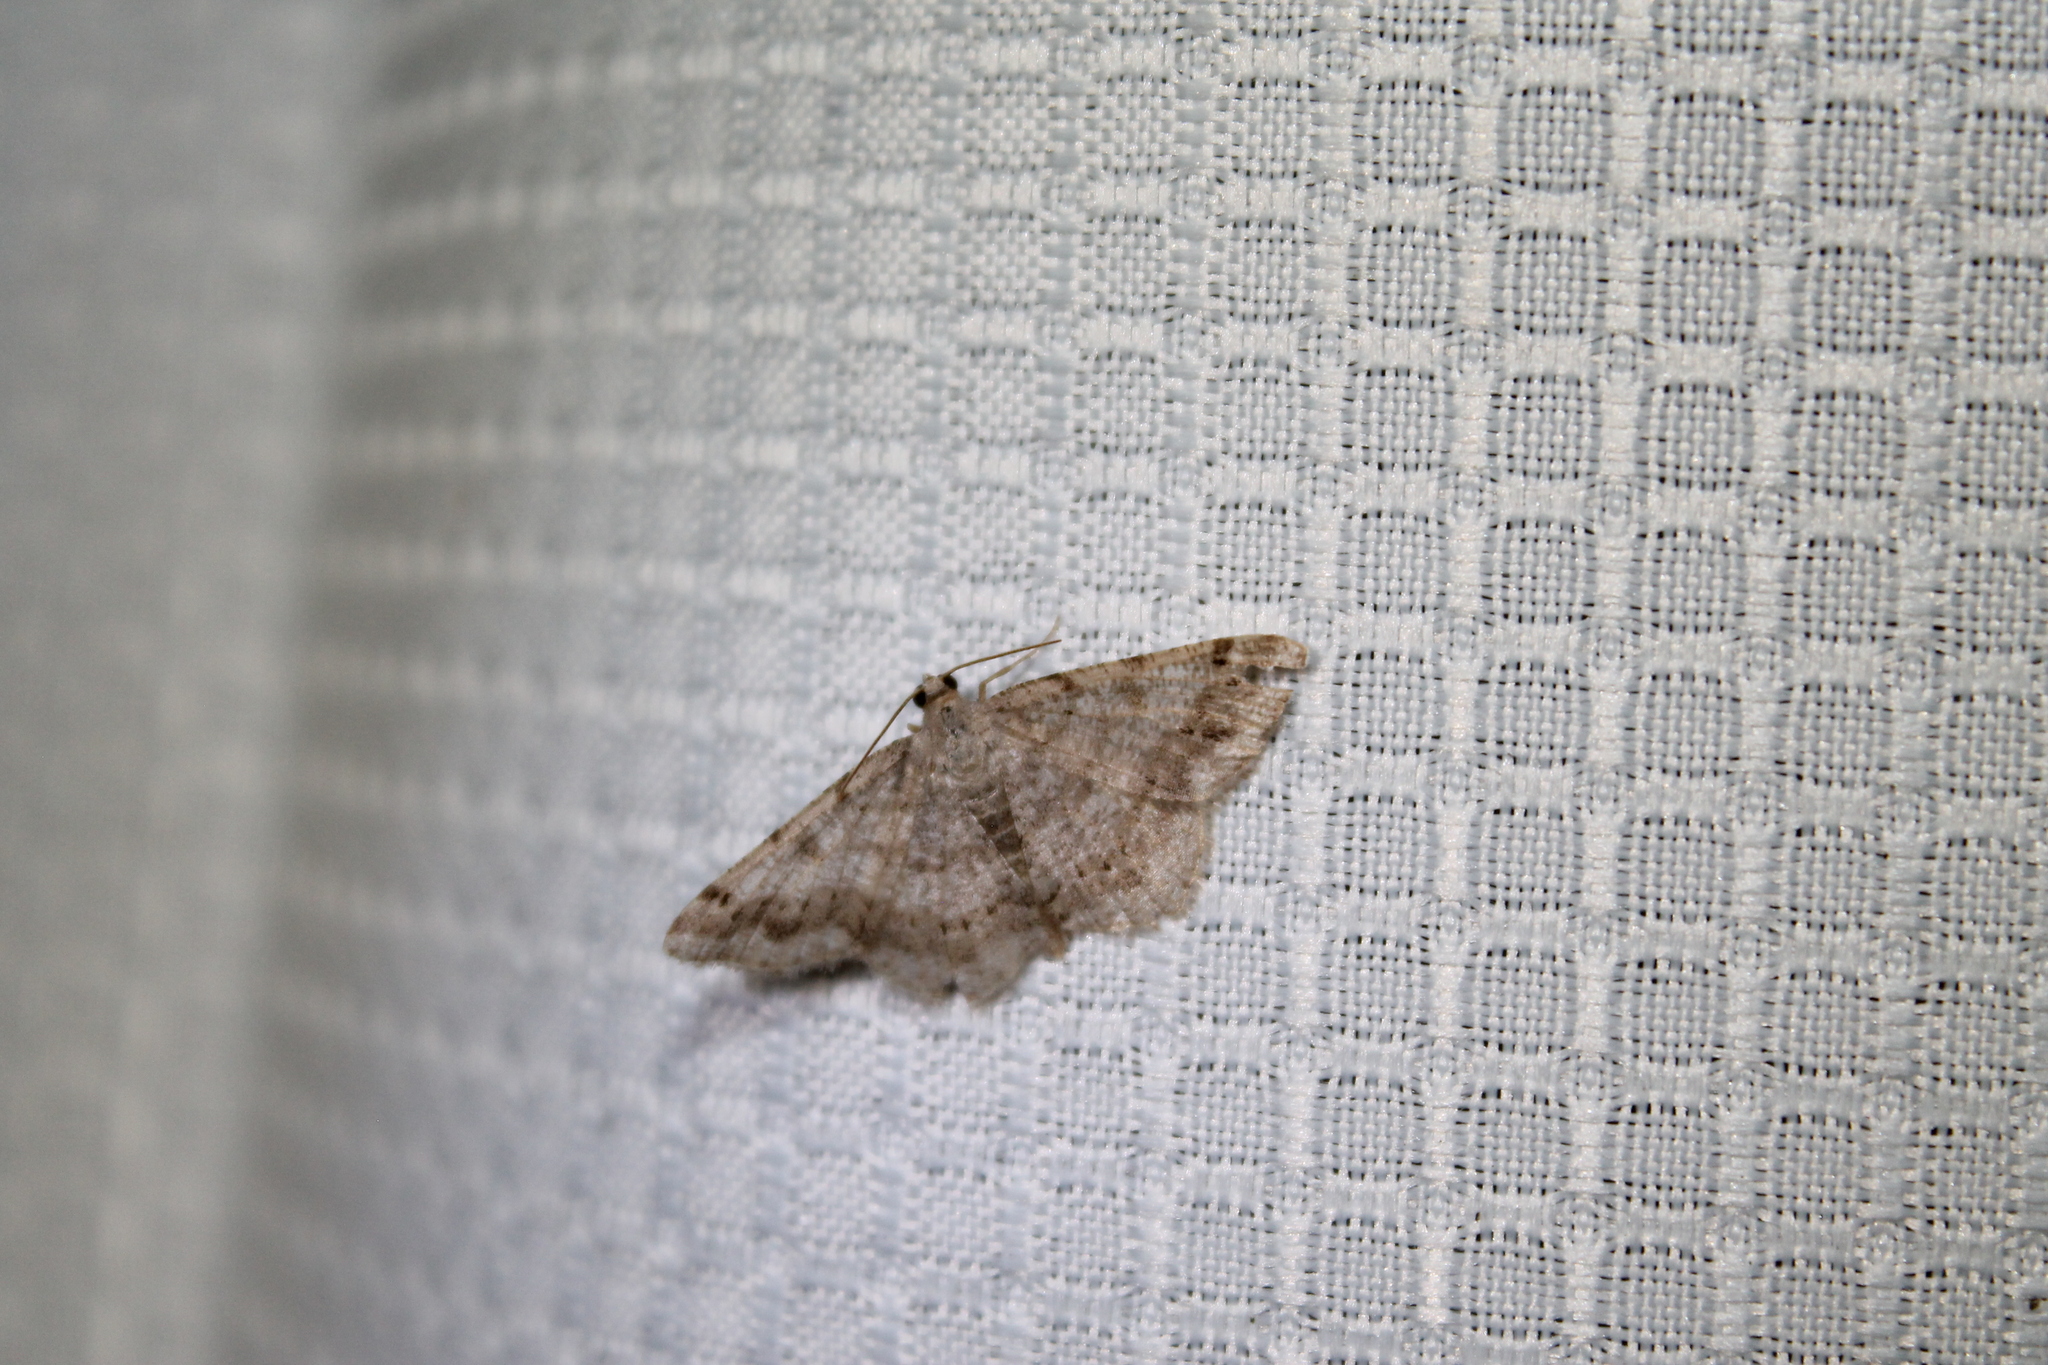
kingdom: Animalia
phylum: Arthropoda
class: Insecta
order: Lepidoptera
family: Geometridae
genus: Digrammia
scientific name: Digrammia ocellinata
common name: Faint-spotted angle
